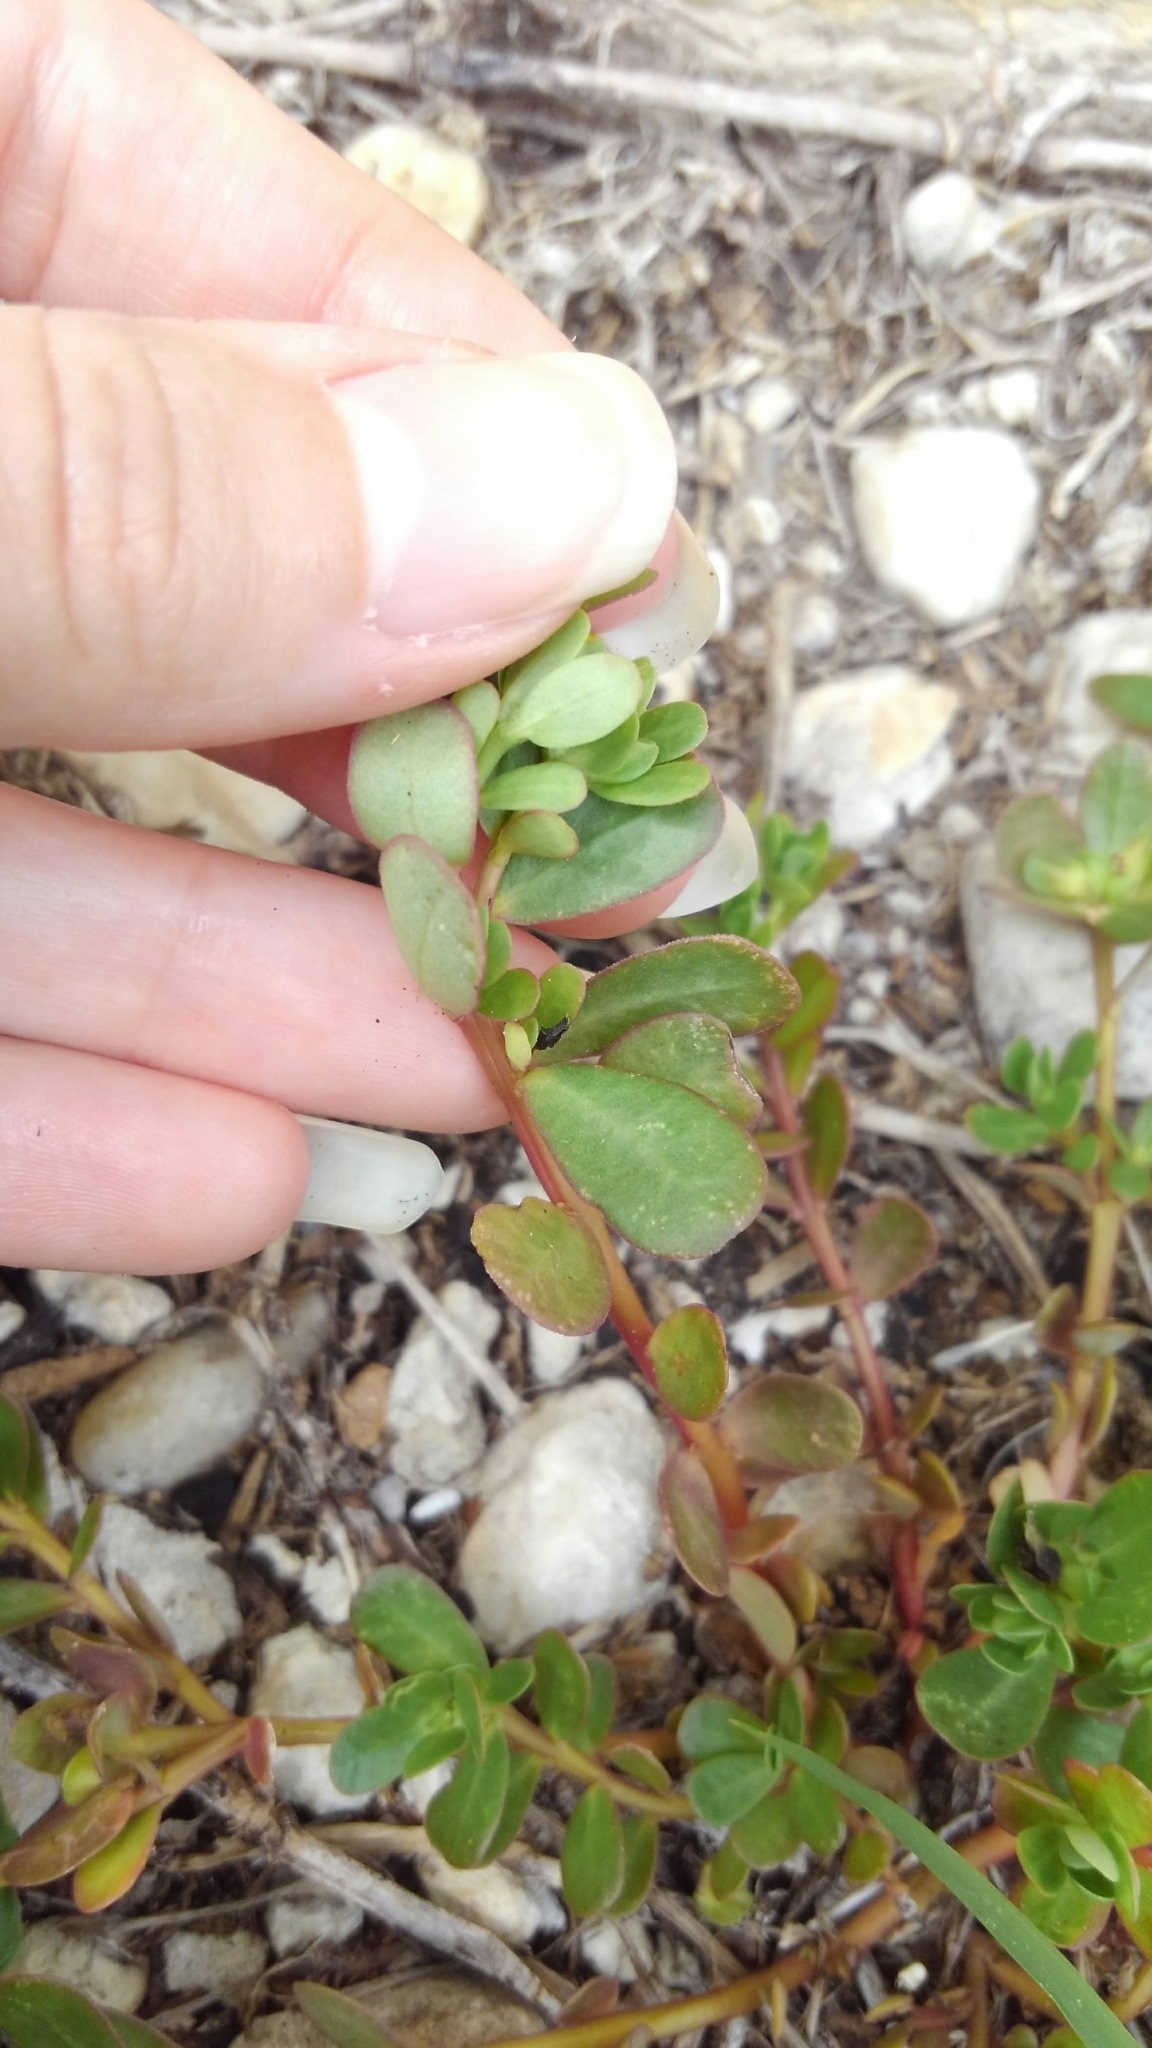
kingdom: Plantae
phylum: Tracheophyta
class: Magnoliopsida
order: Caryophyllales
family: Portulacaceae
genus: Portulaca
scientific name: Portulaca oleracea
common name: Common purslane
